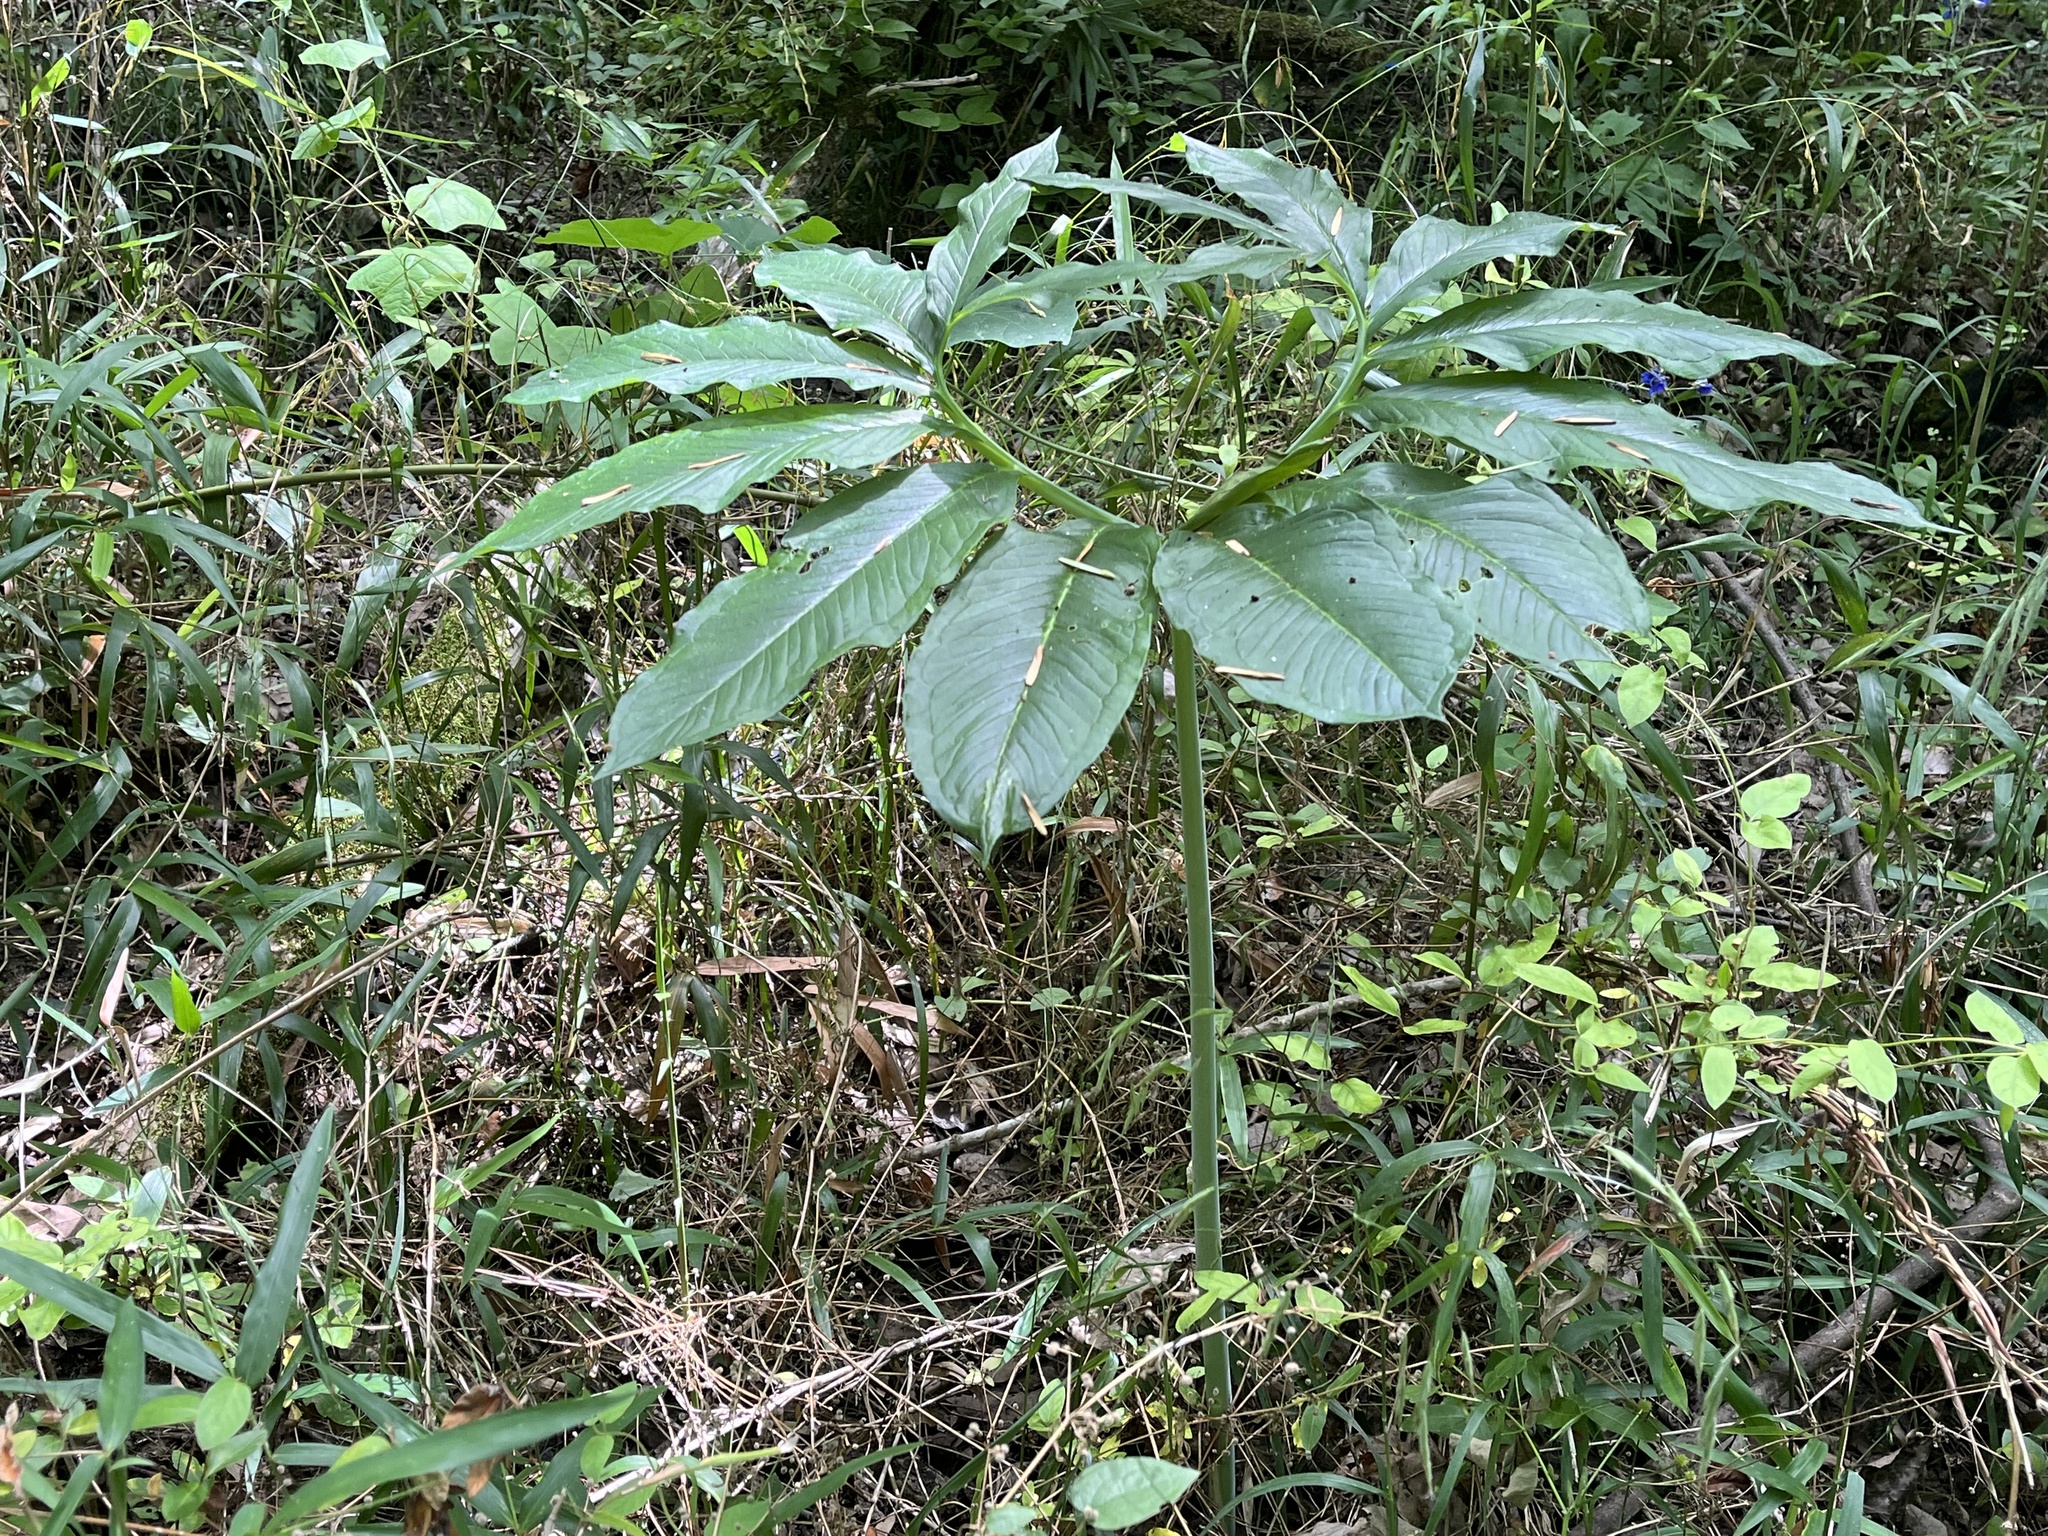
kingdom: Plantae
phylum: Tracheophyta
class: Liliopsida
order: Alismatales
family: Araceae
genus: Arisaema
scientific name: Arisaema dracontium
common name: Dragon-arum
